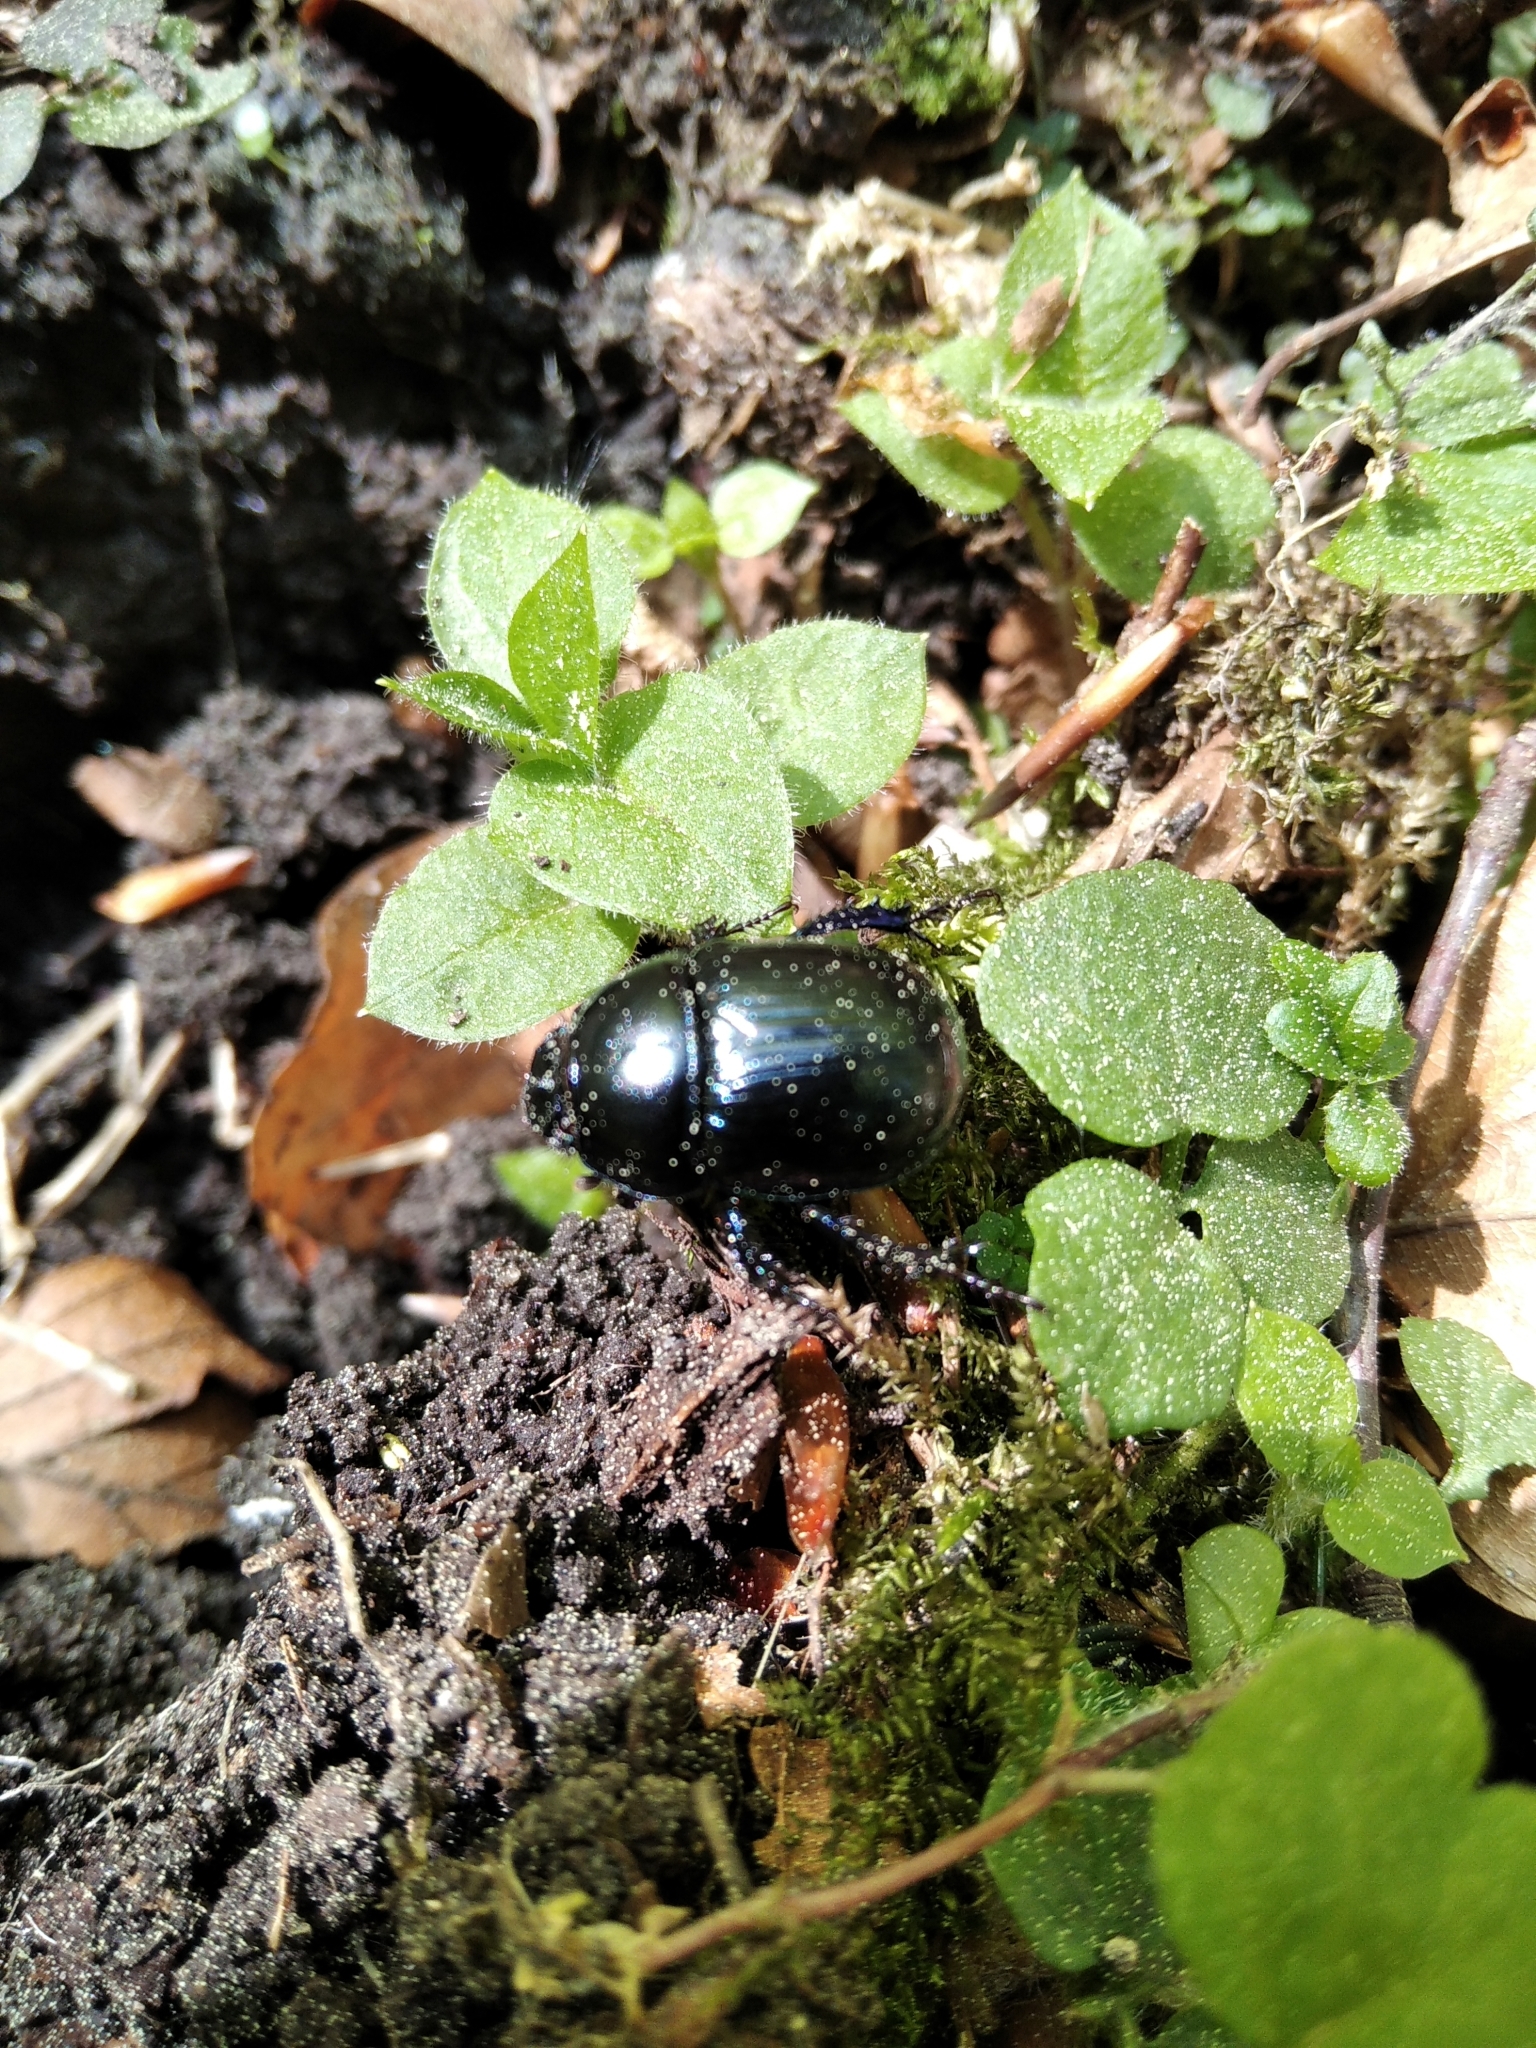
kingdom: Animalia
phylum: Arthropoda
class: Insecta
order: Coleoptera
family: Geotrupidae
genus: Anoplotrupes
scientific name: Anoplotrupes stercorosus
